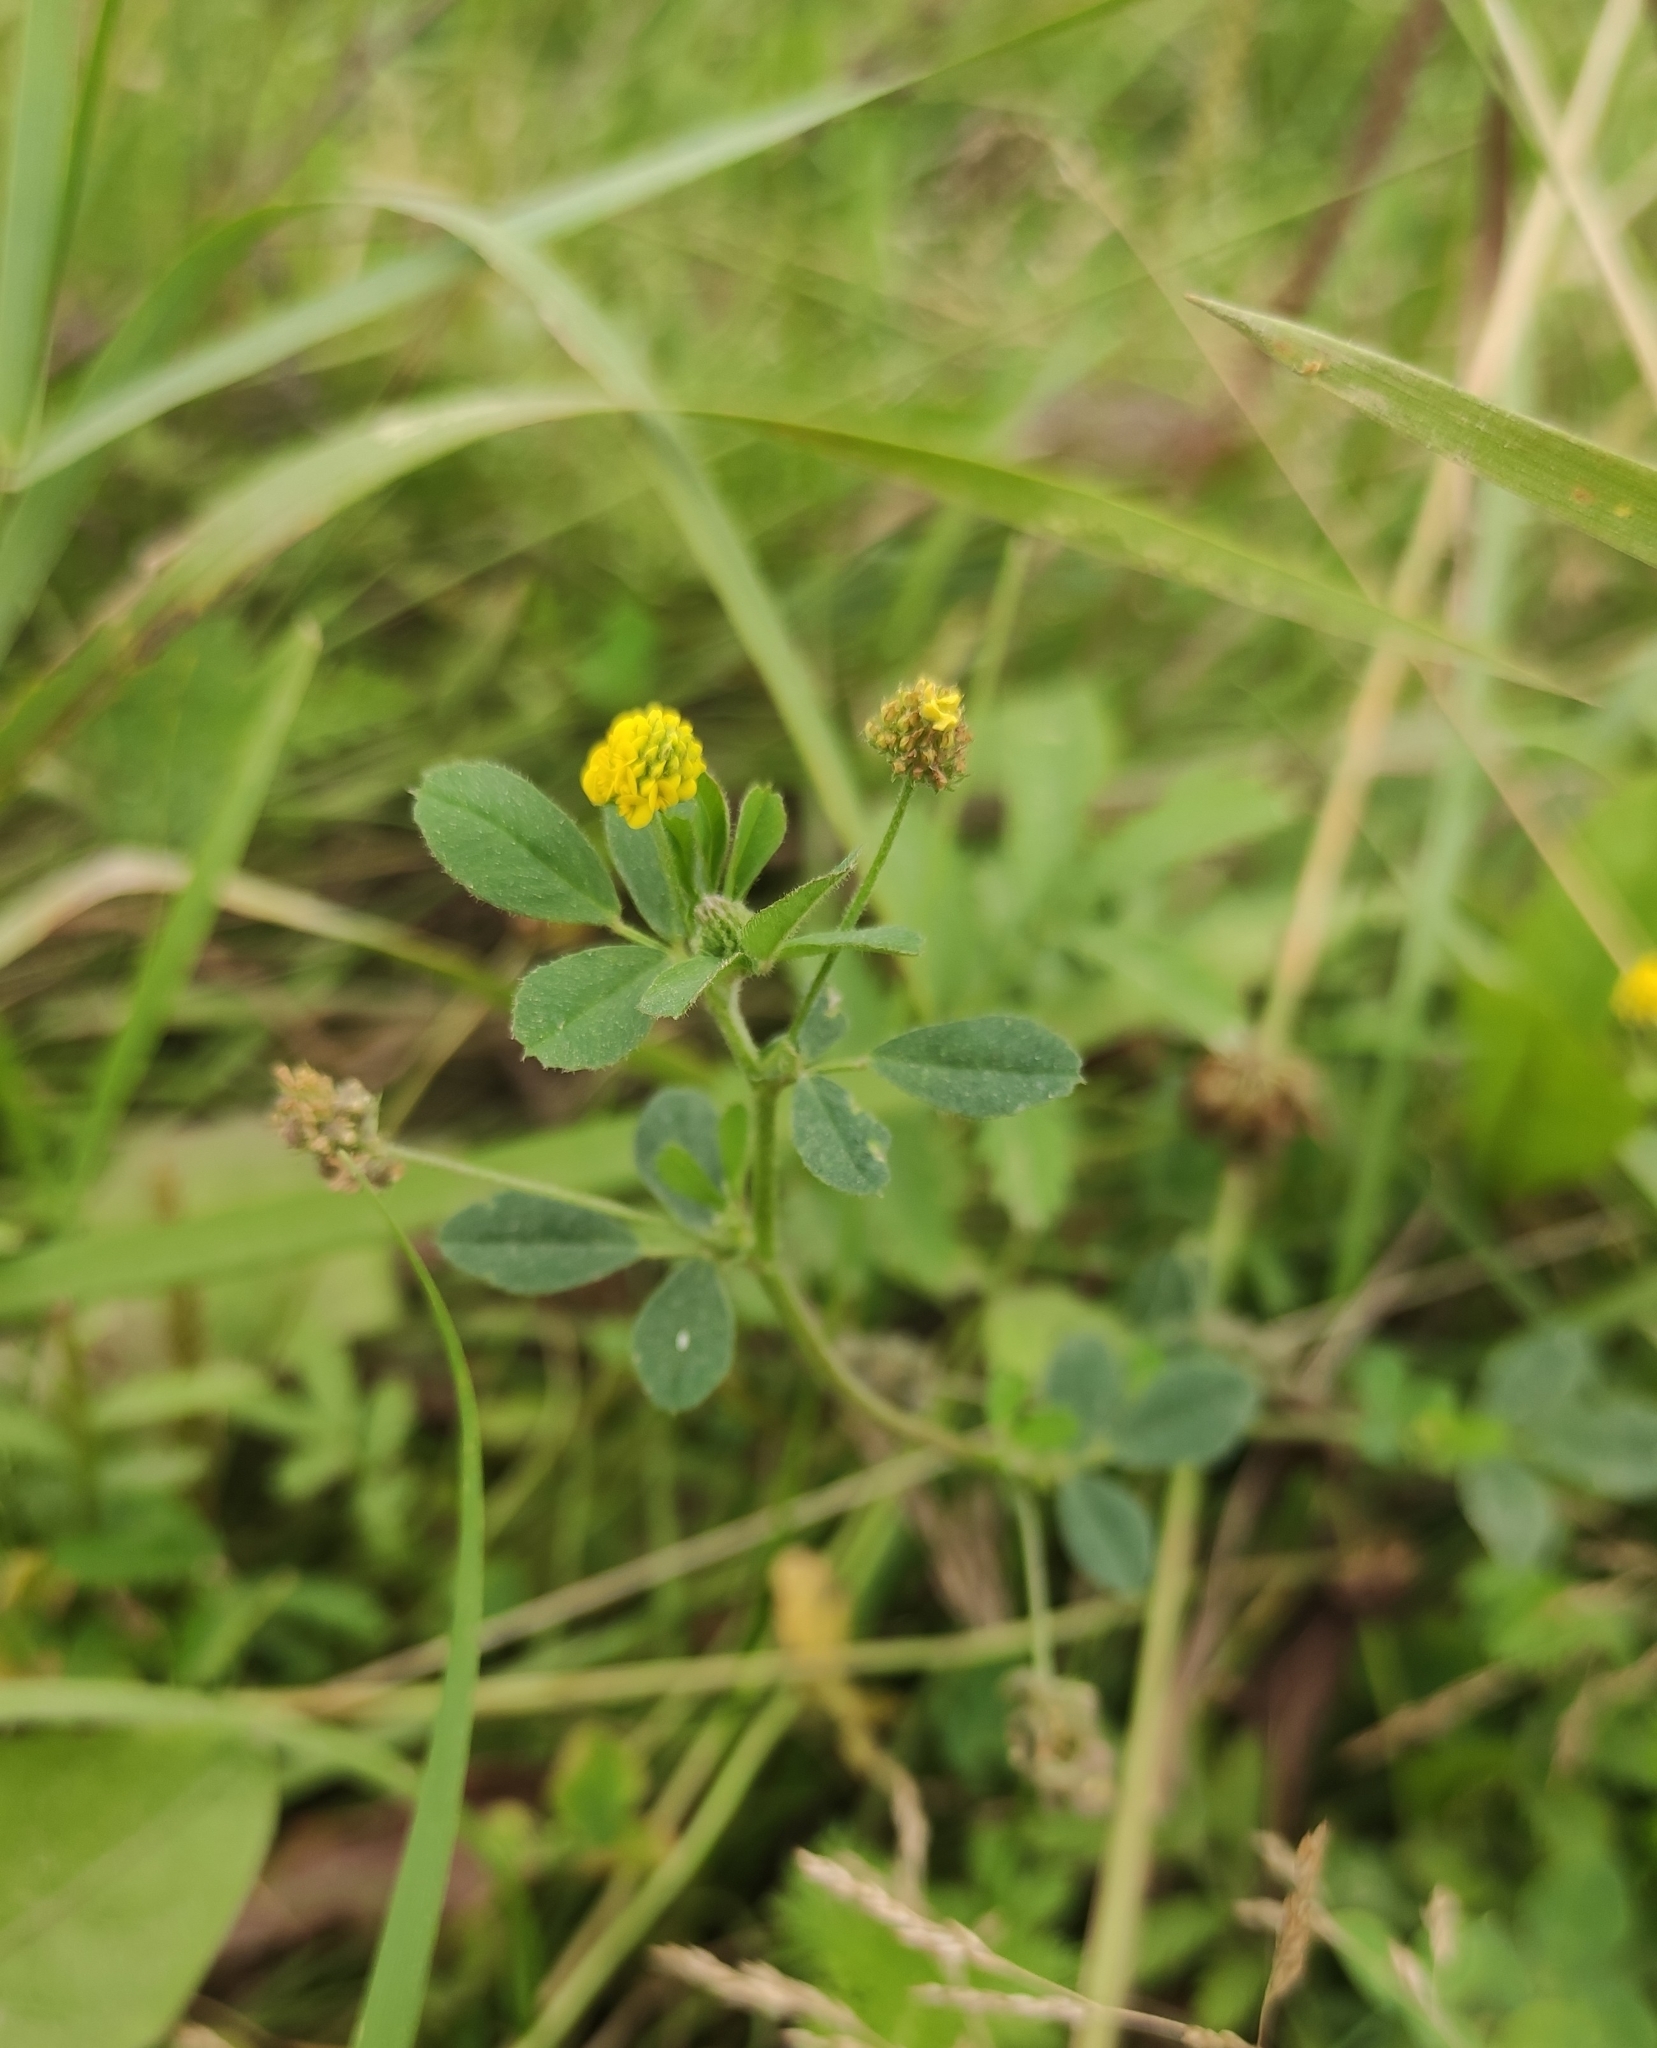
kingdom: Plantae
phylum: Tracheophyta
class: Magnoliopsida
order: Fabales
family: Fabaceae
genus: Medicago
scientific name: Medicago lupulina
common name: Black medick
